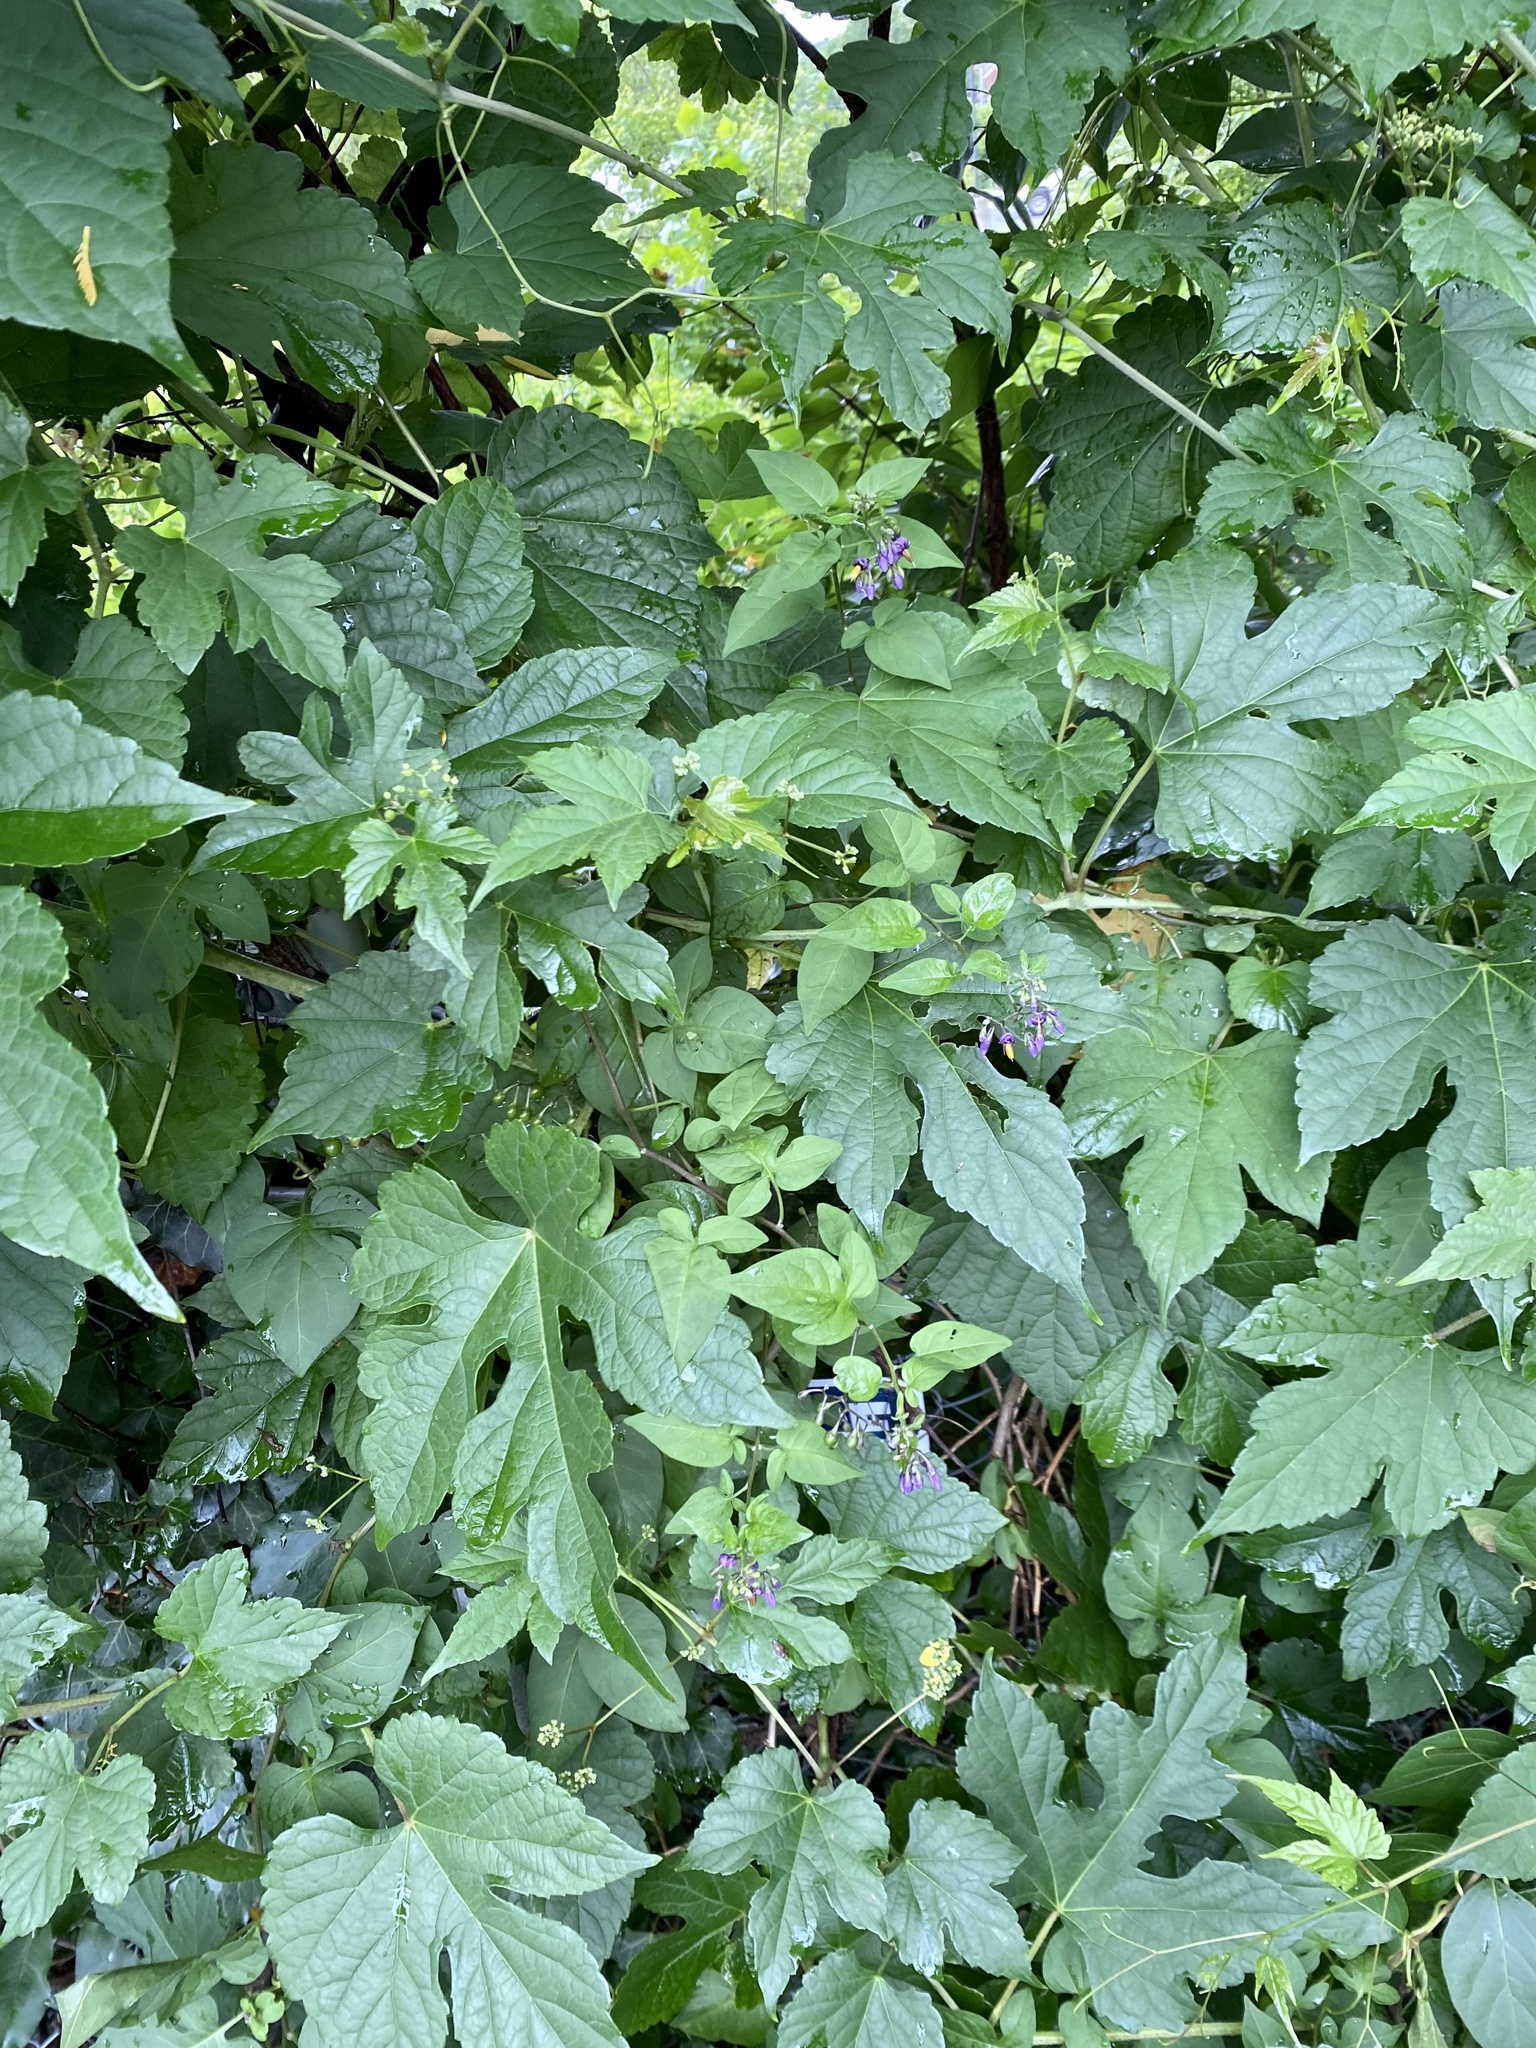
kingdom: Plantae
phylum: Tracheophyta
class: Magnoliopsida
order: Solanales
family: Solanaceae
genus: Solanum
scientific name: Solanum dulcamara
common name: Climbing nightshade
